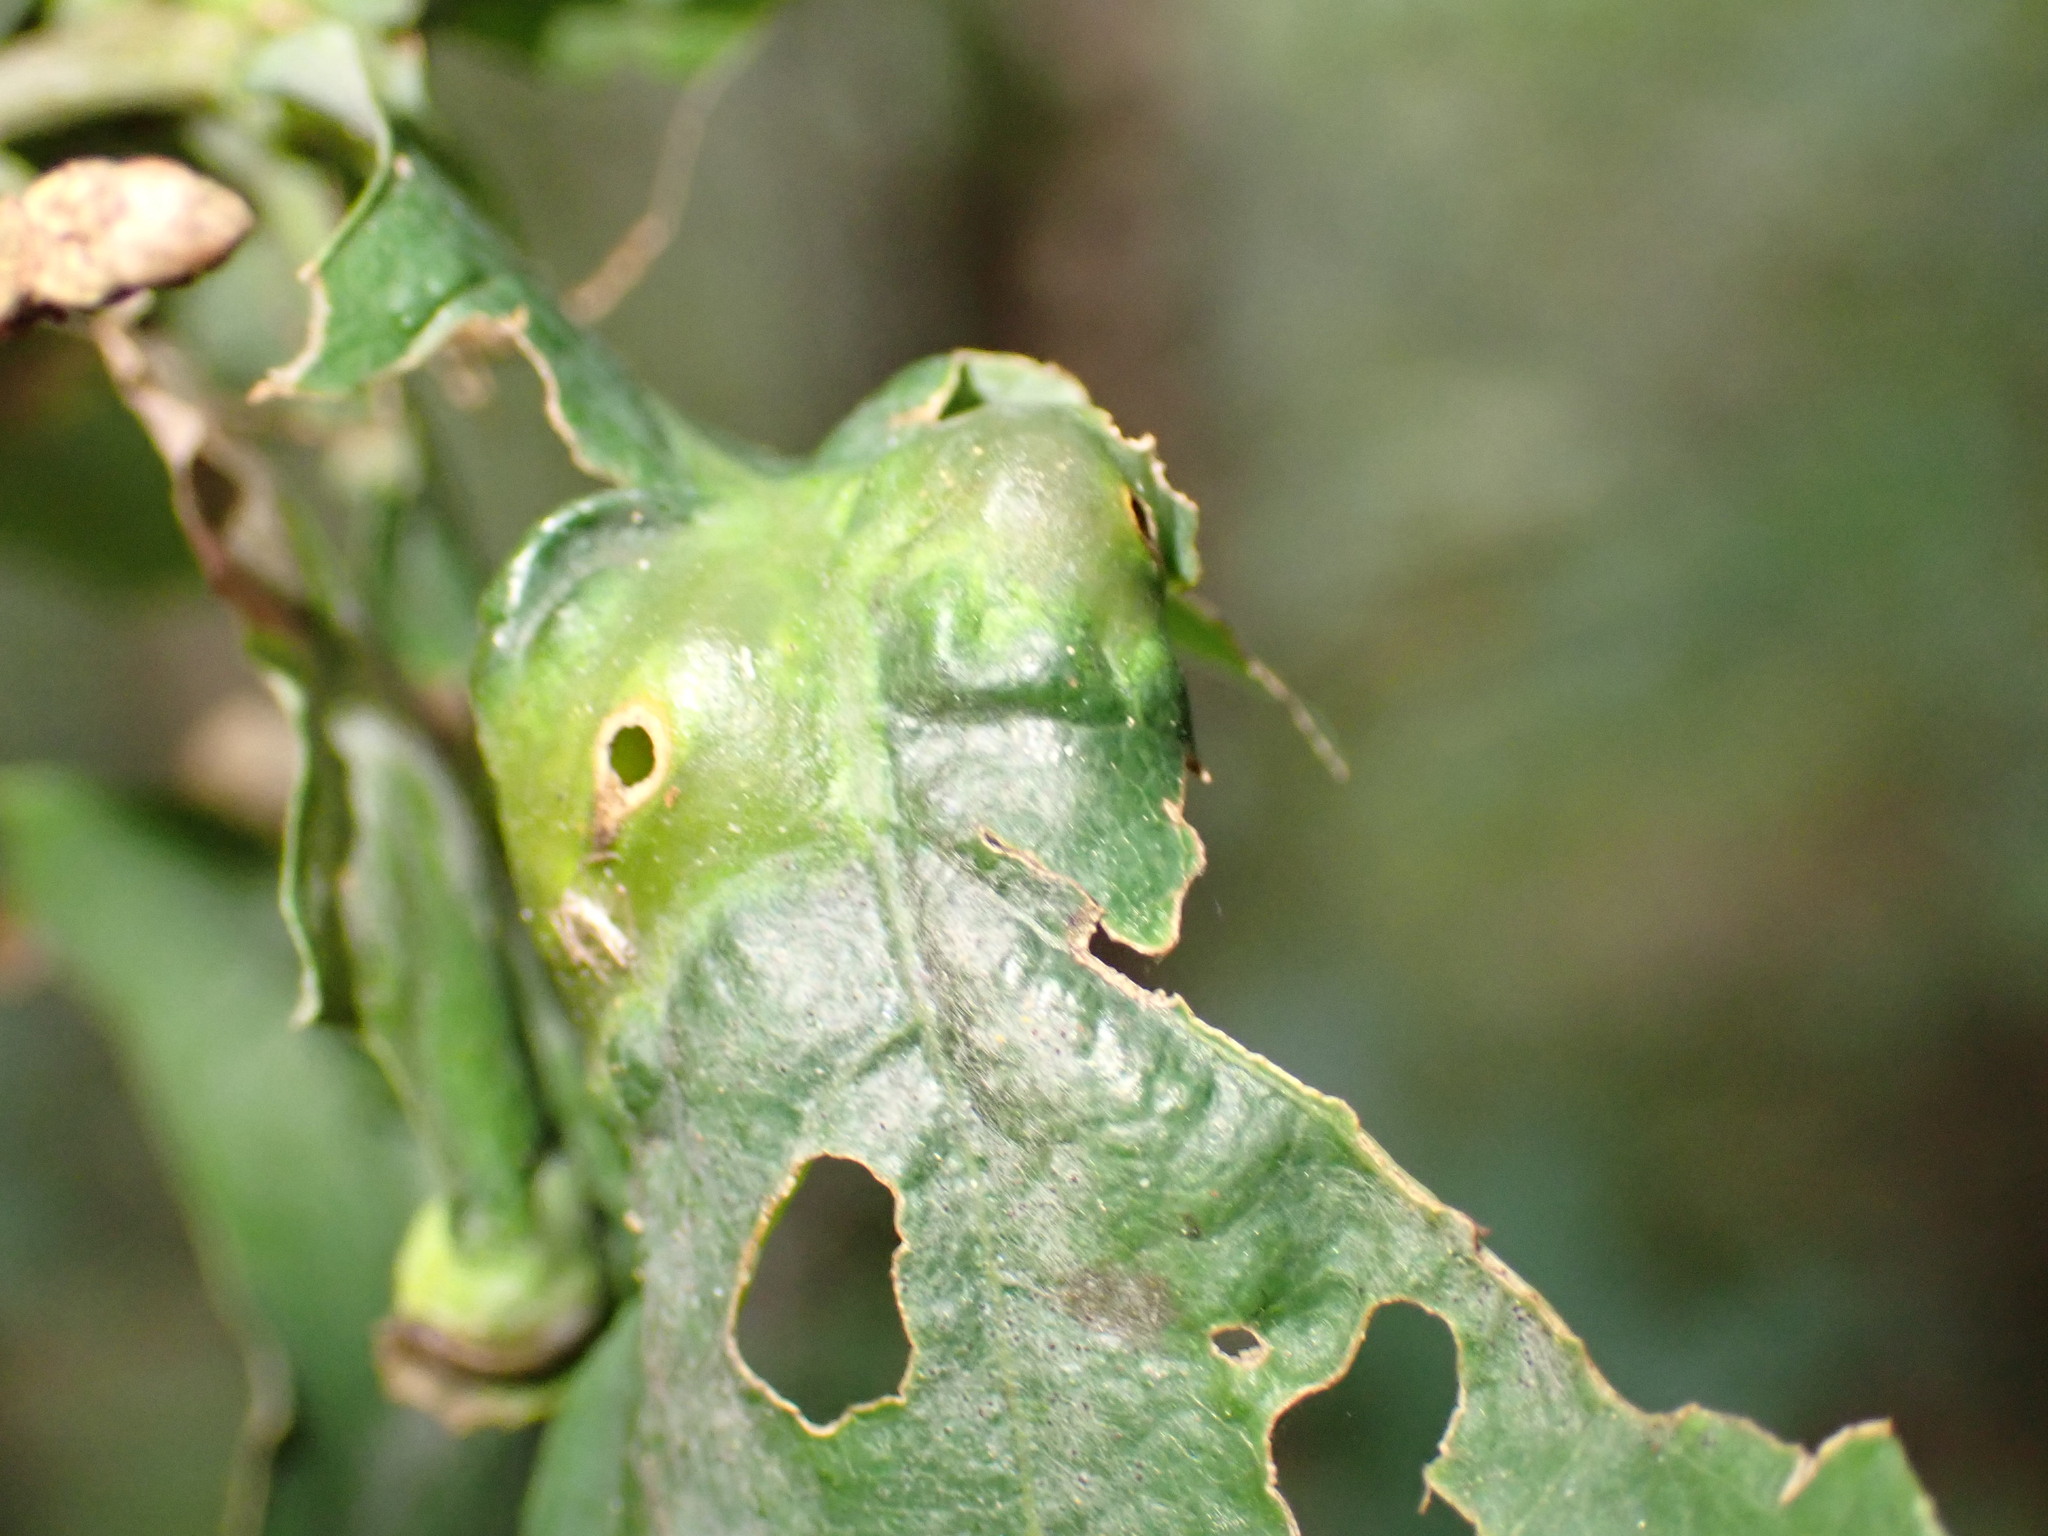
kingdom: Animalia
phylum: Arthropoda
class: Insecta
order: Hymenoptera
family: Cynipidae
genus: Andricus
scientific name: Andricus curvator
